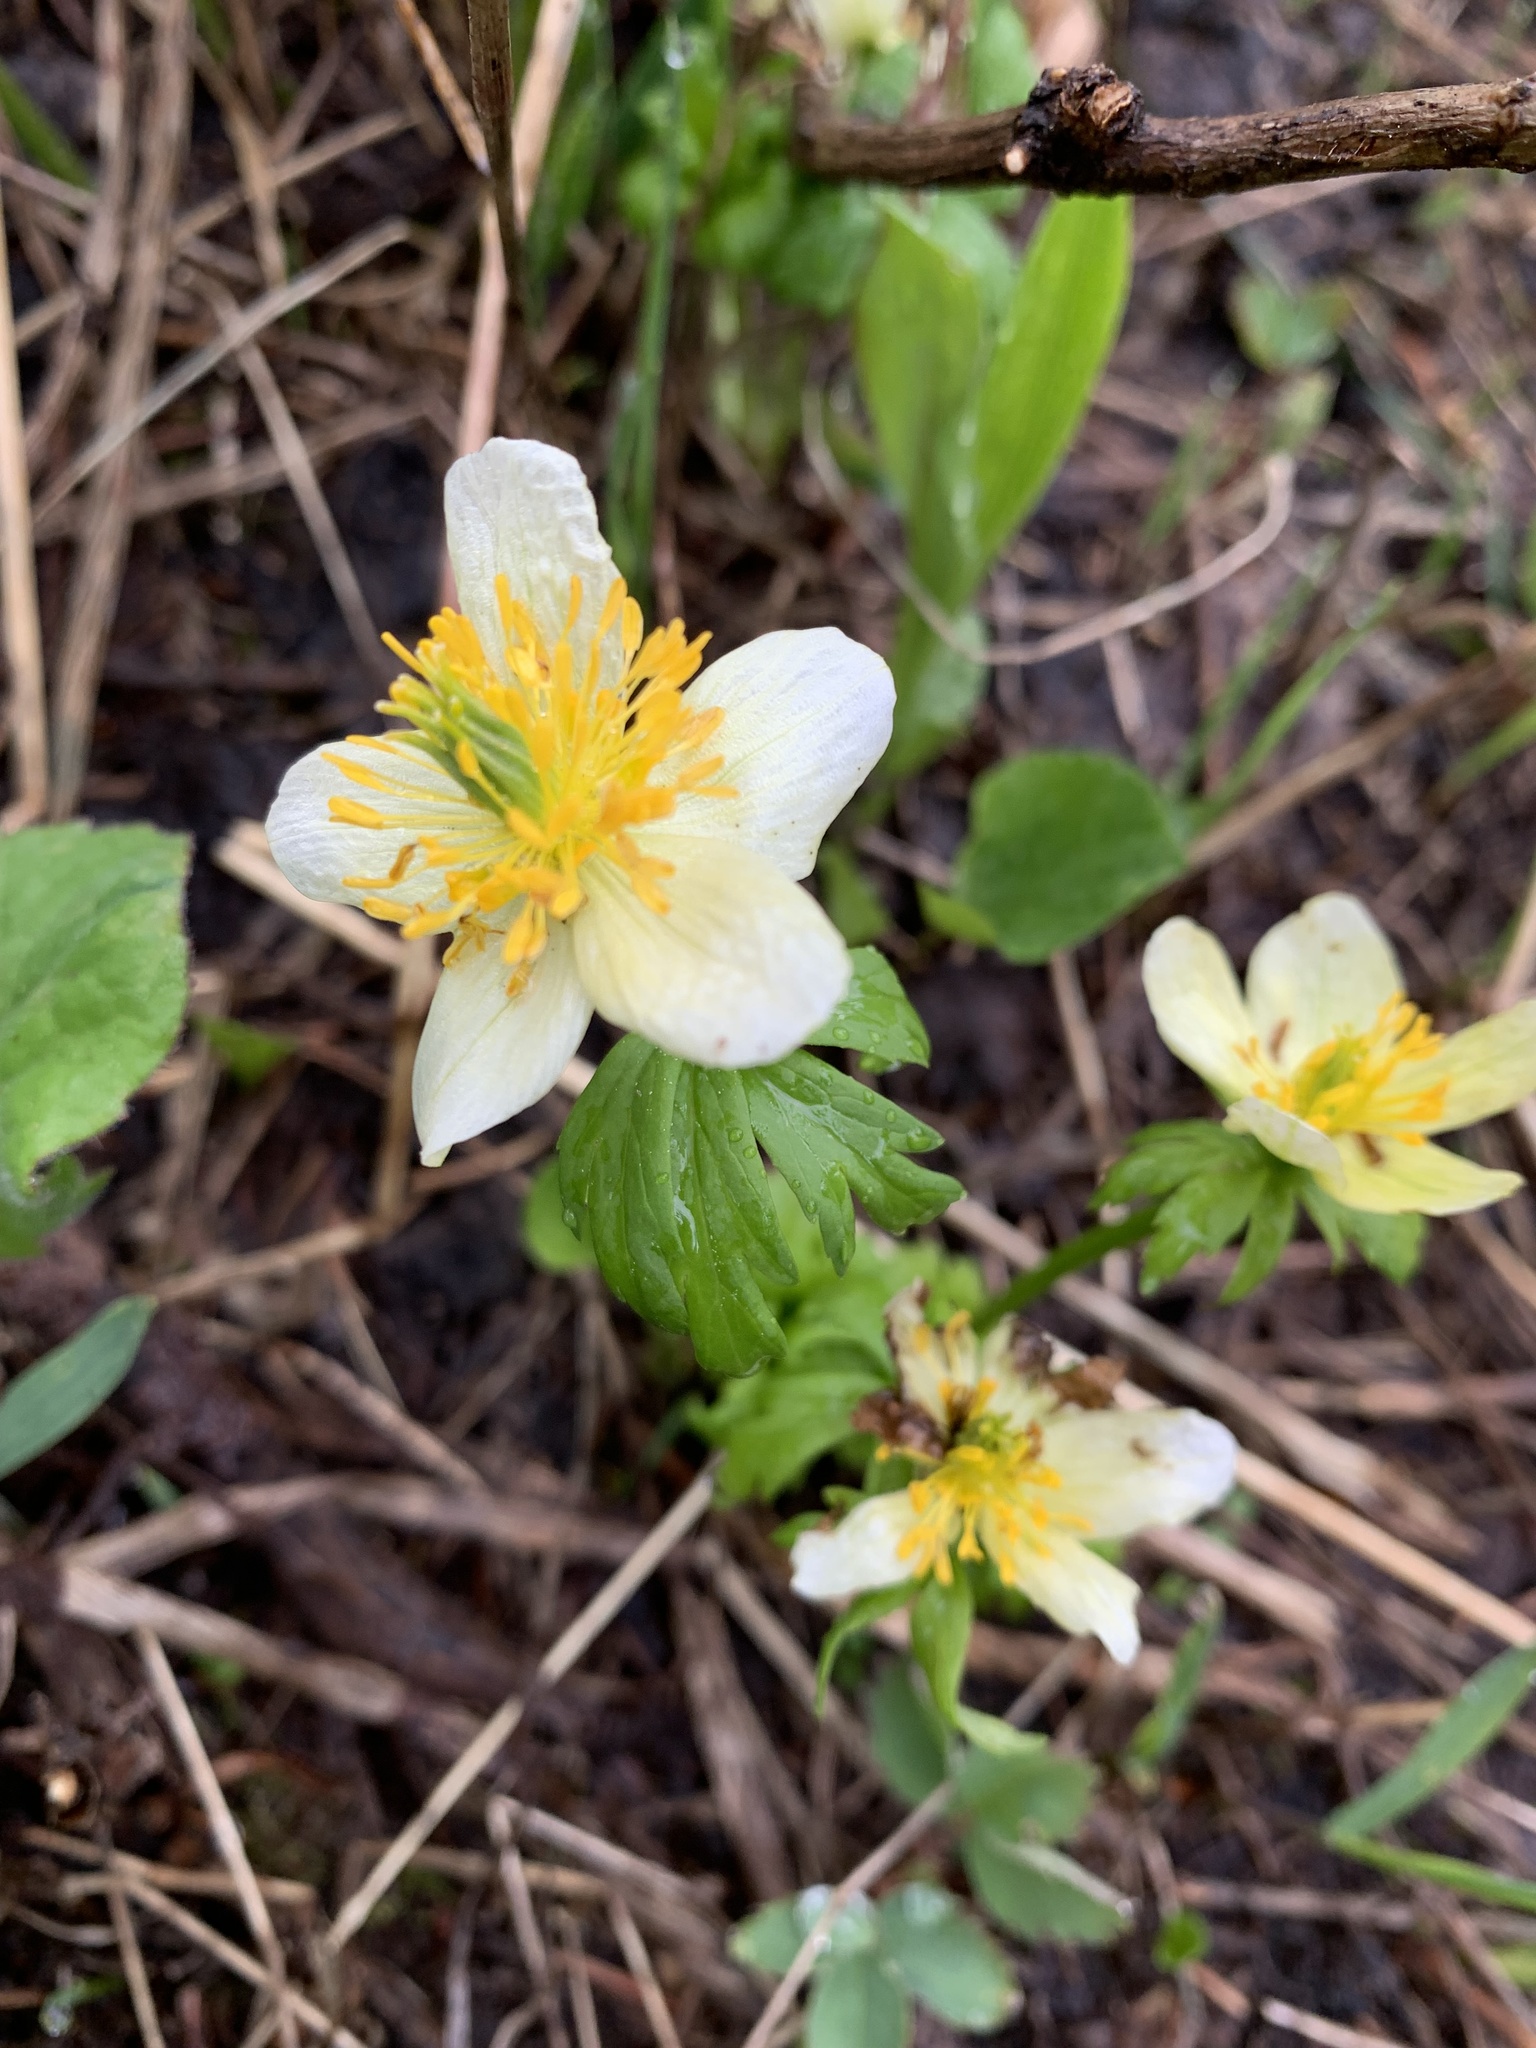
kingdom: Plantae
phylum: Tracheophyta
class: Magnoliopsida
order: Ranunculales
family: Ranunculaceae
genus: Trollius
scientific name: Trollius laxus
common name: American globeflower
